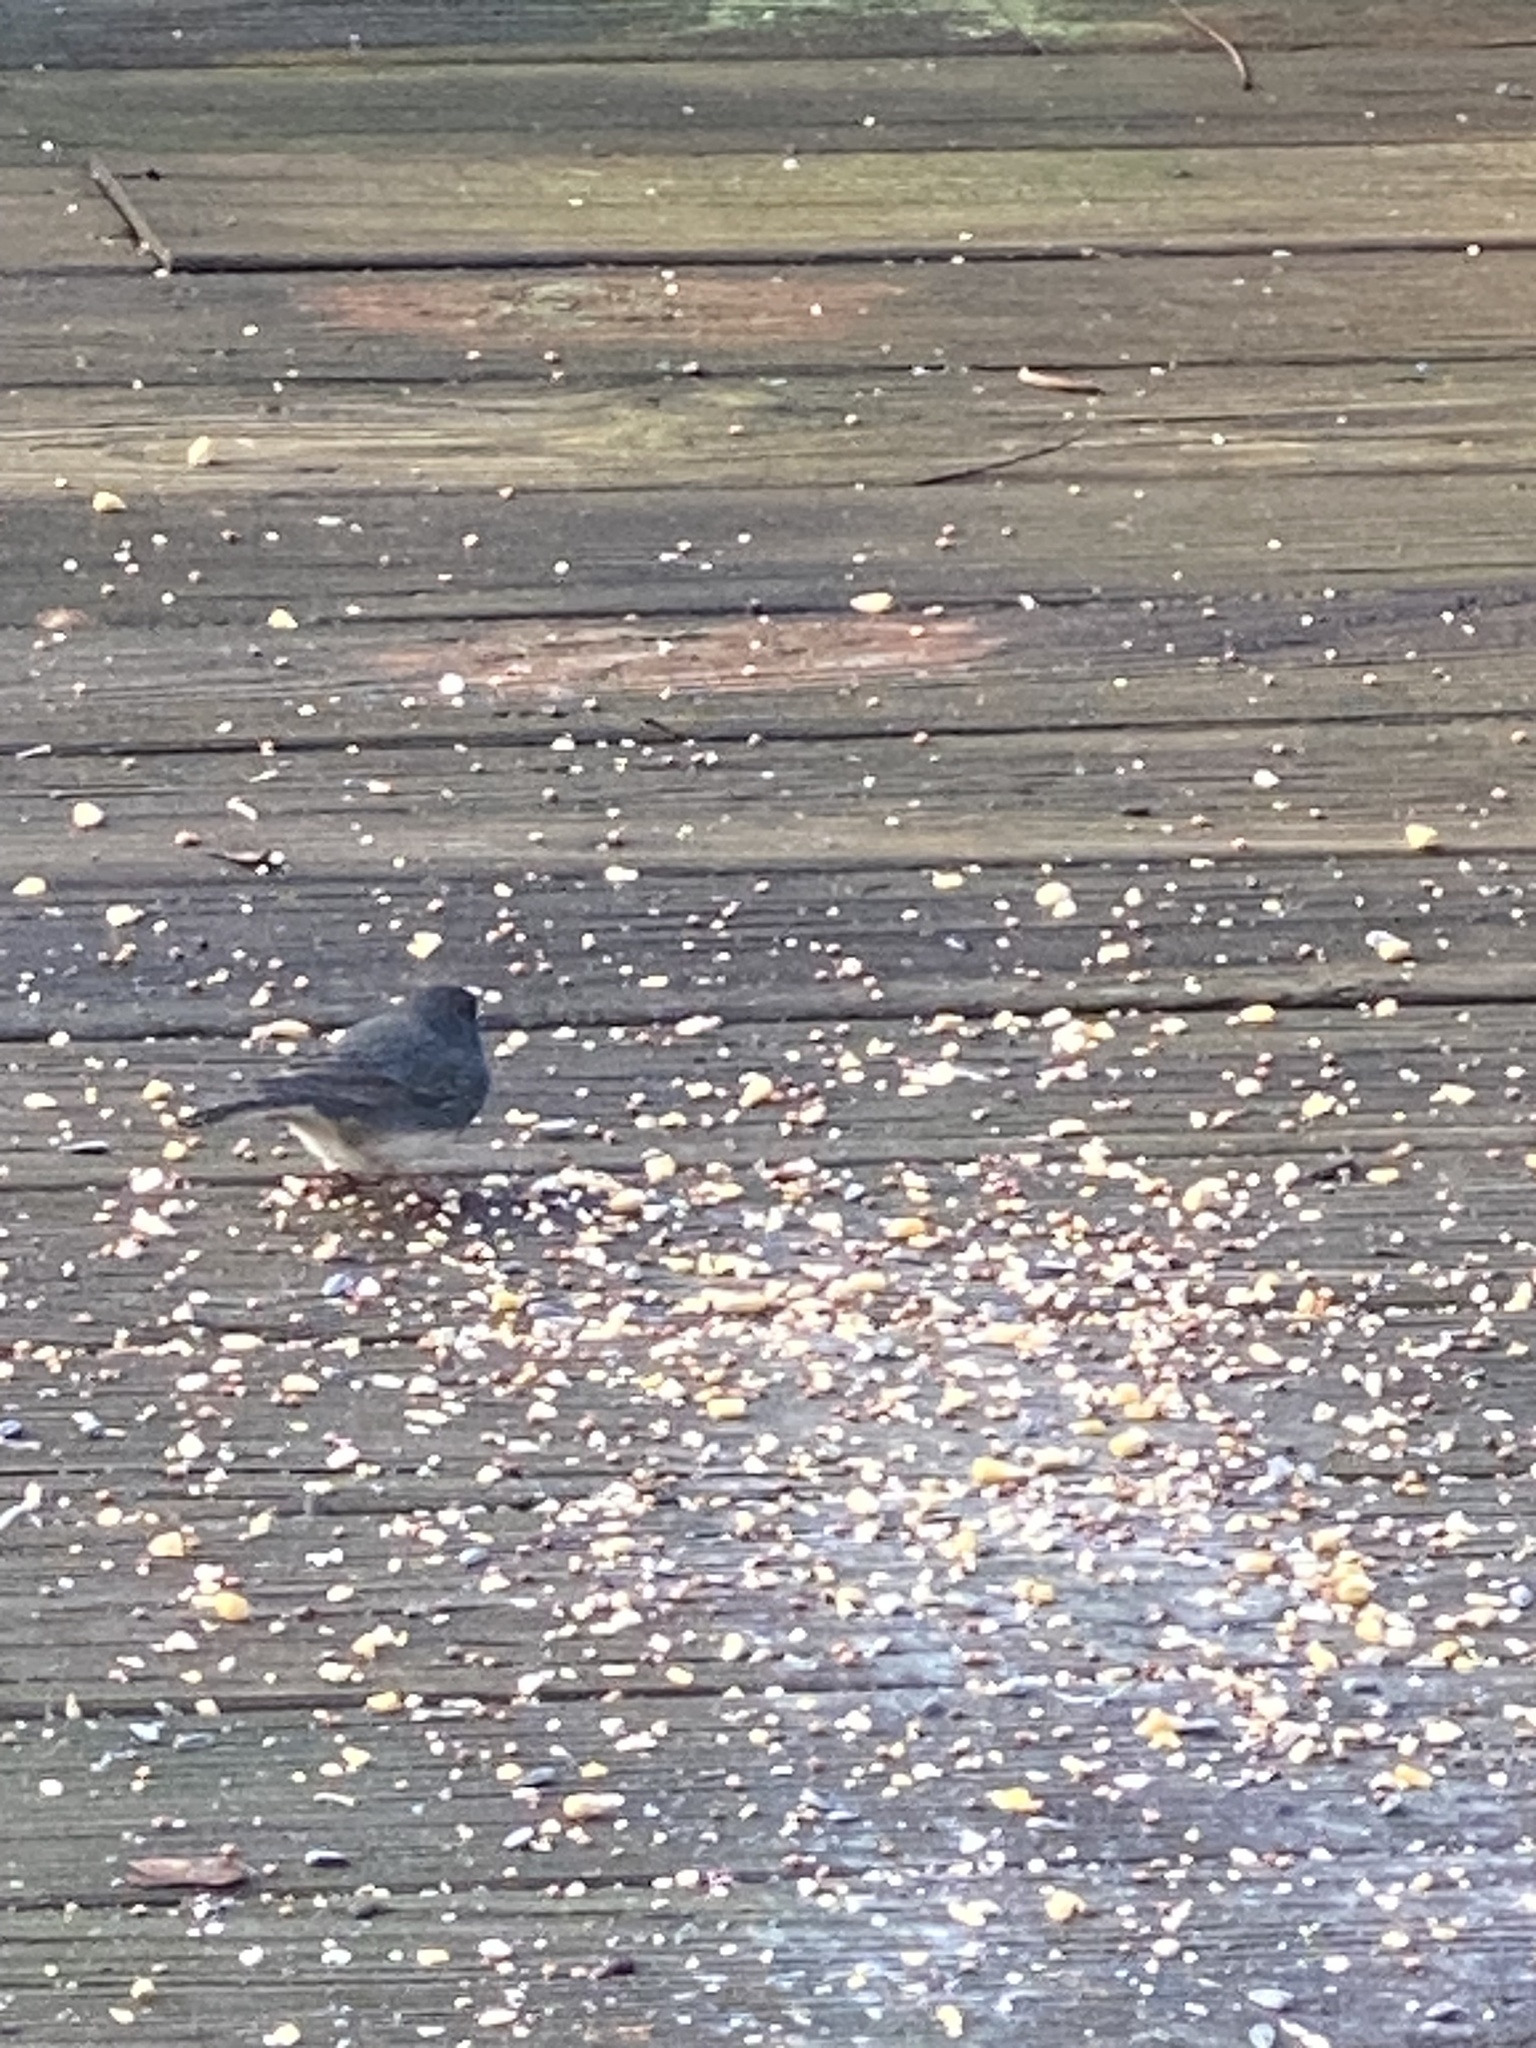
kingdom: Animalia
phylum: Chordata
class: Aves
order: Passeriformes
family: Passerellidae
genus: Junco
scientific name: Junco hyemalis
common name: Dark-eyed junco
